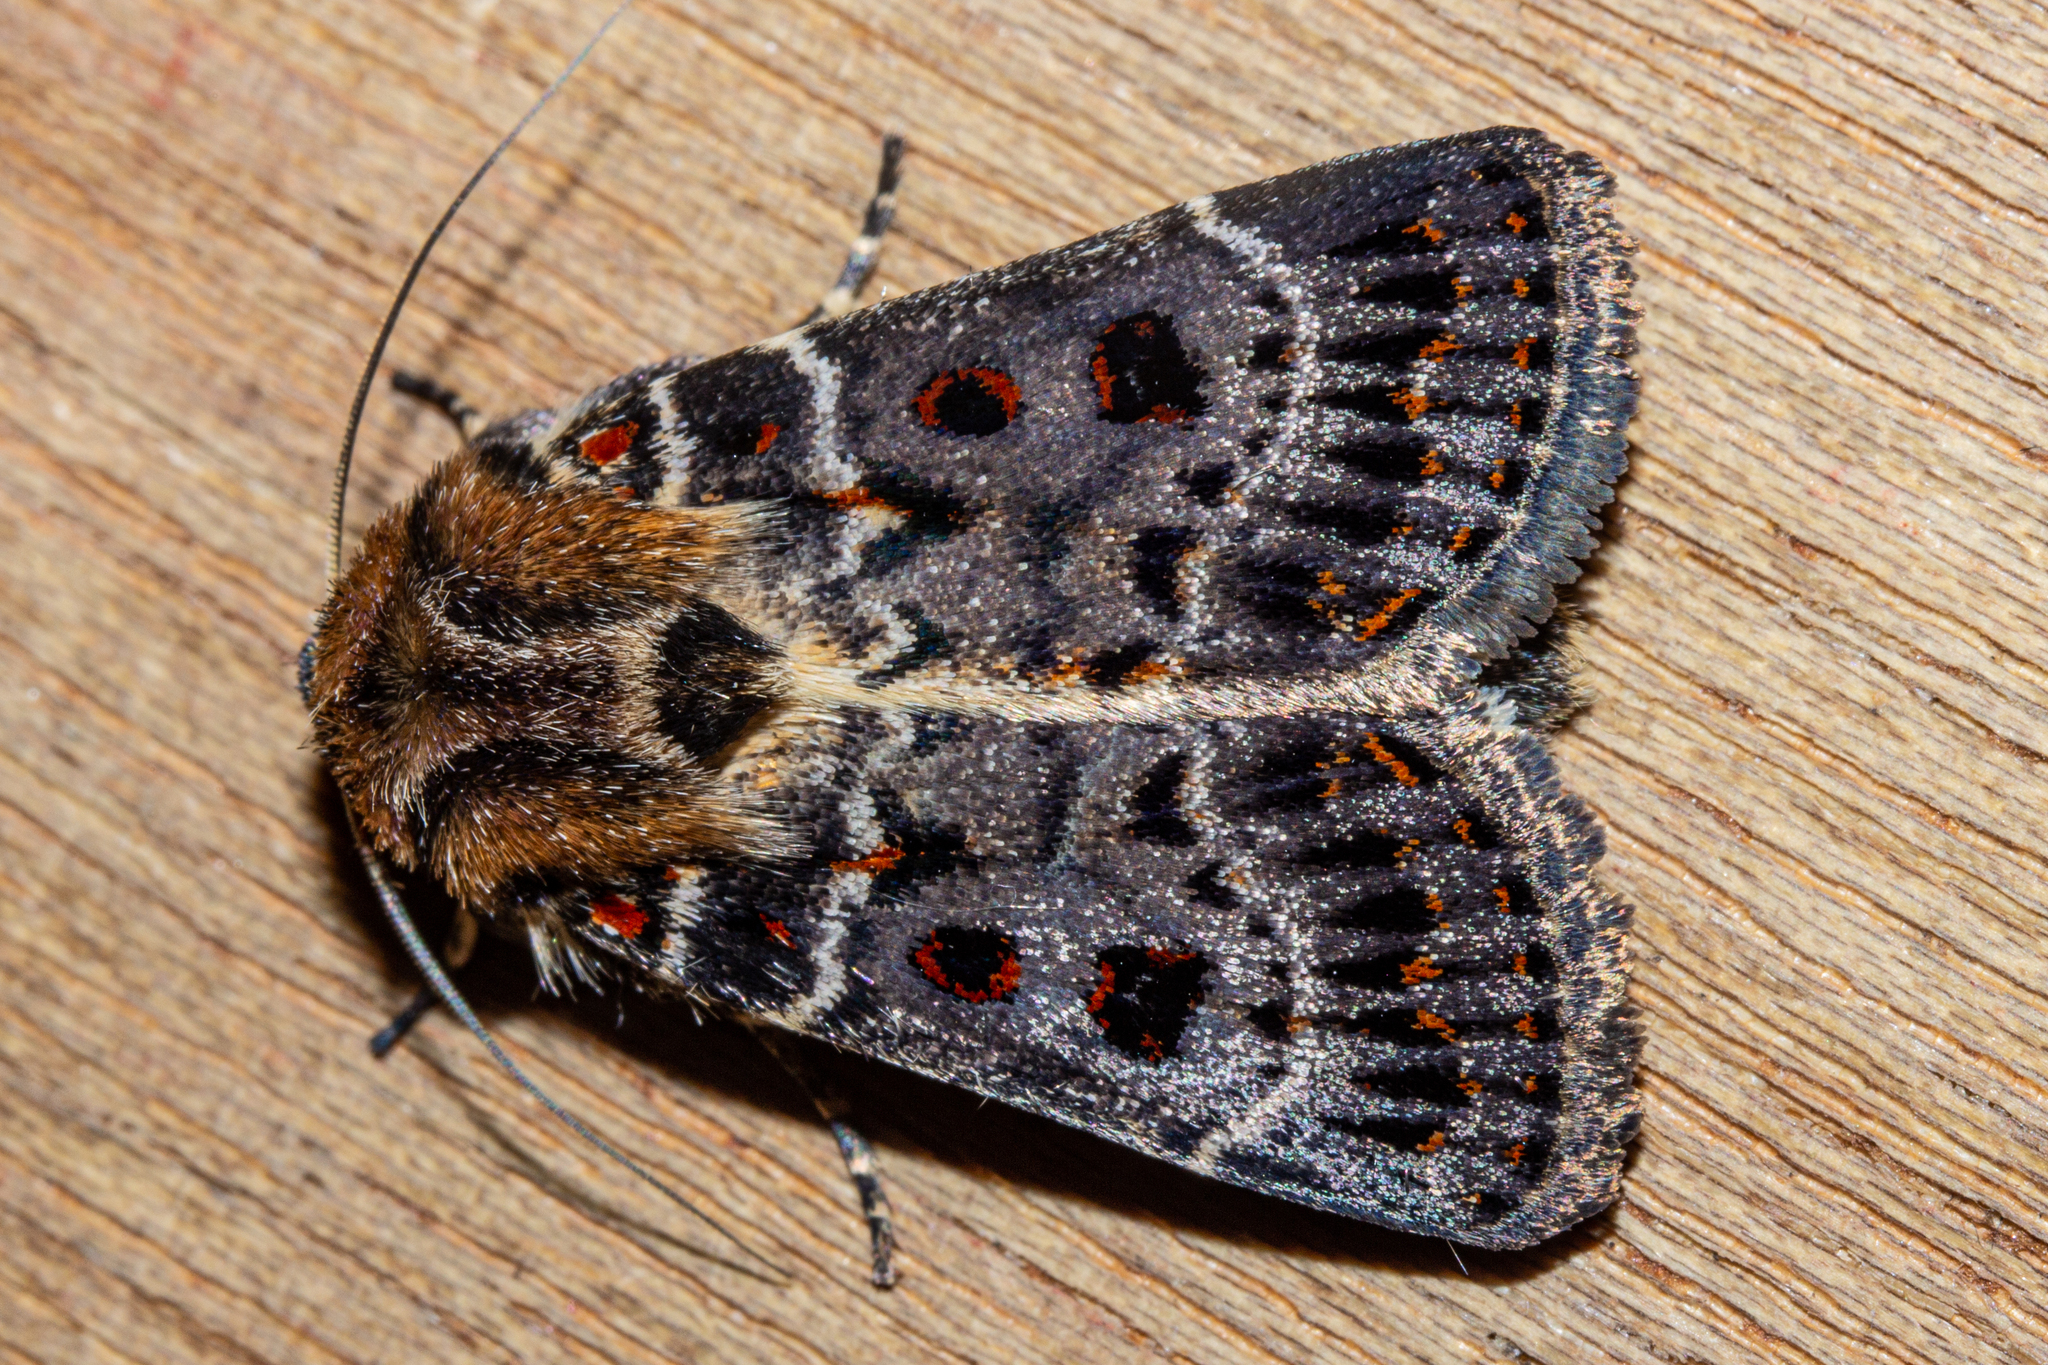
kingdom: Animalia
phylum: Arthropoda
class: Insecta
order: Lepidoptera
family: Noctuidae
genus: Proteuxoa
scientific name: Proteuxoa sanguinipuncta
